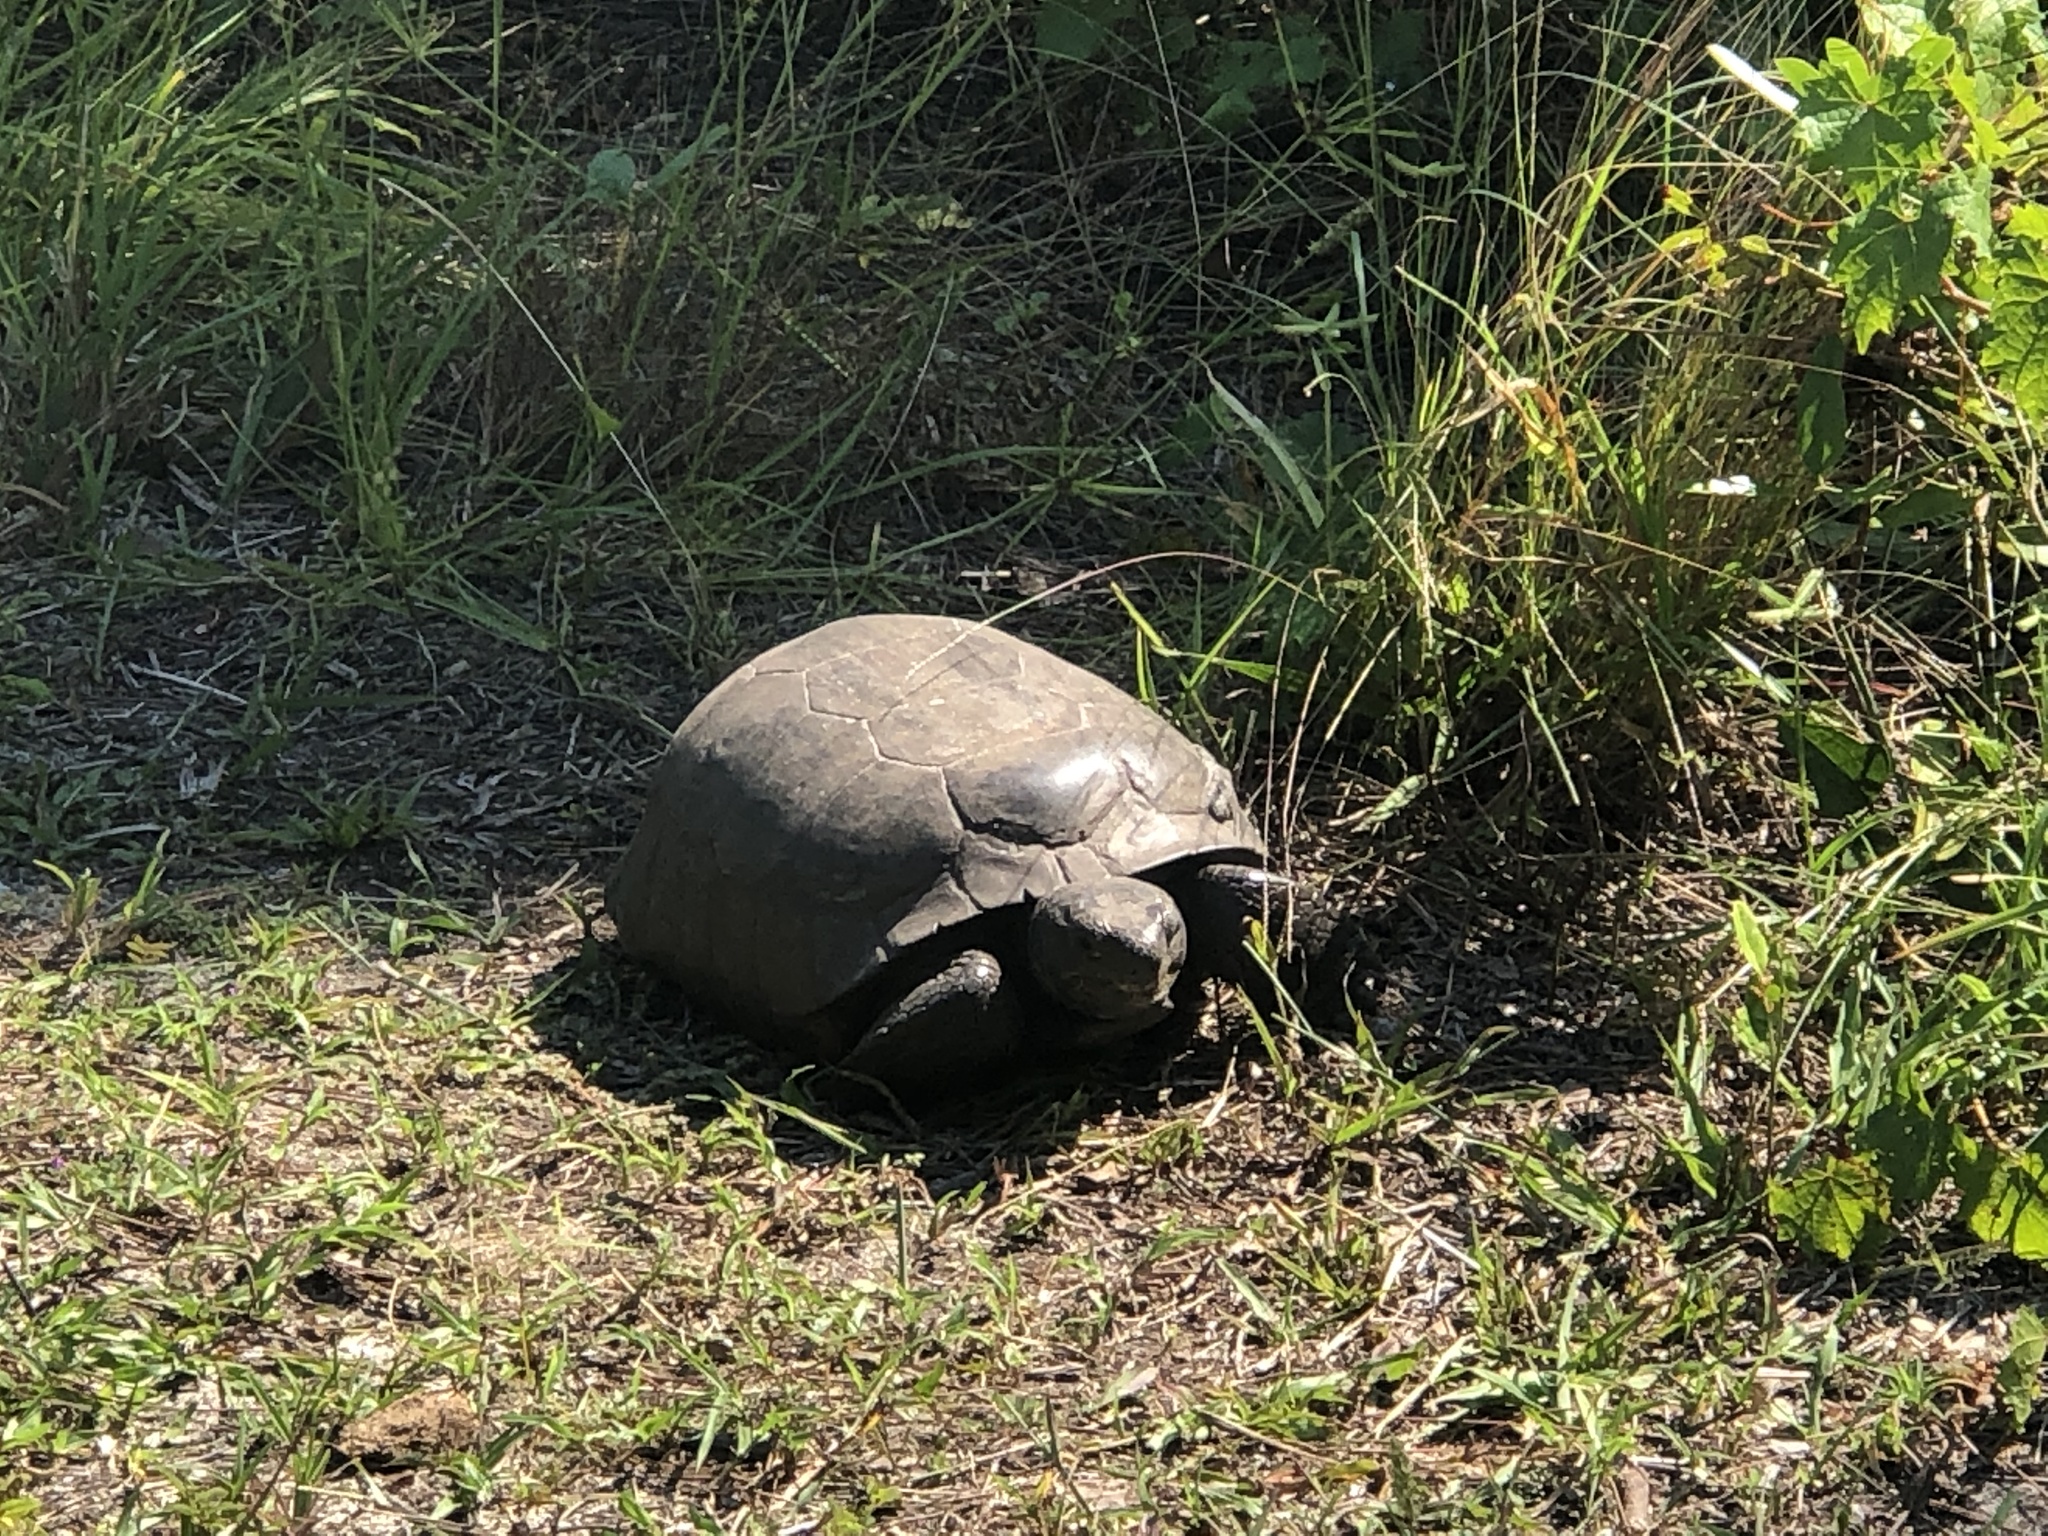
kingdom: Animalia
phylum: Chordata
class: Testudines
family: Testudinidae
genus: Gopherus
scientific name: Gopherus polyphemus
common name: Florida gopher tortoise
